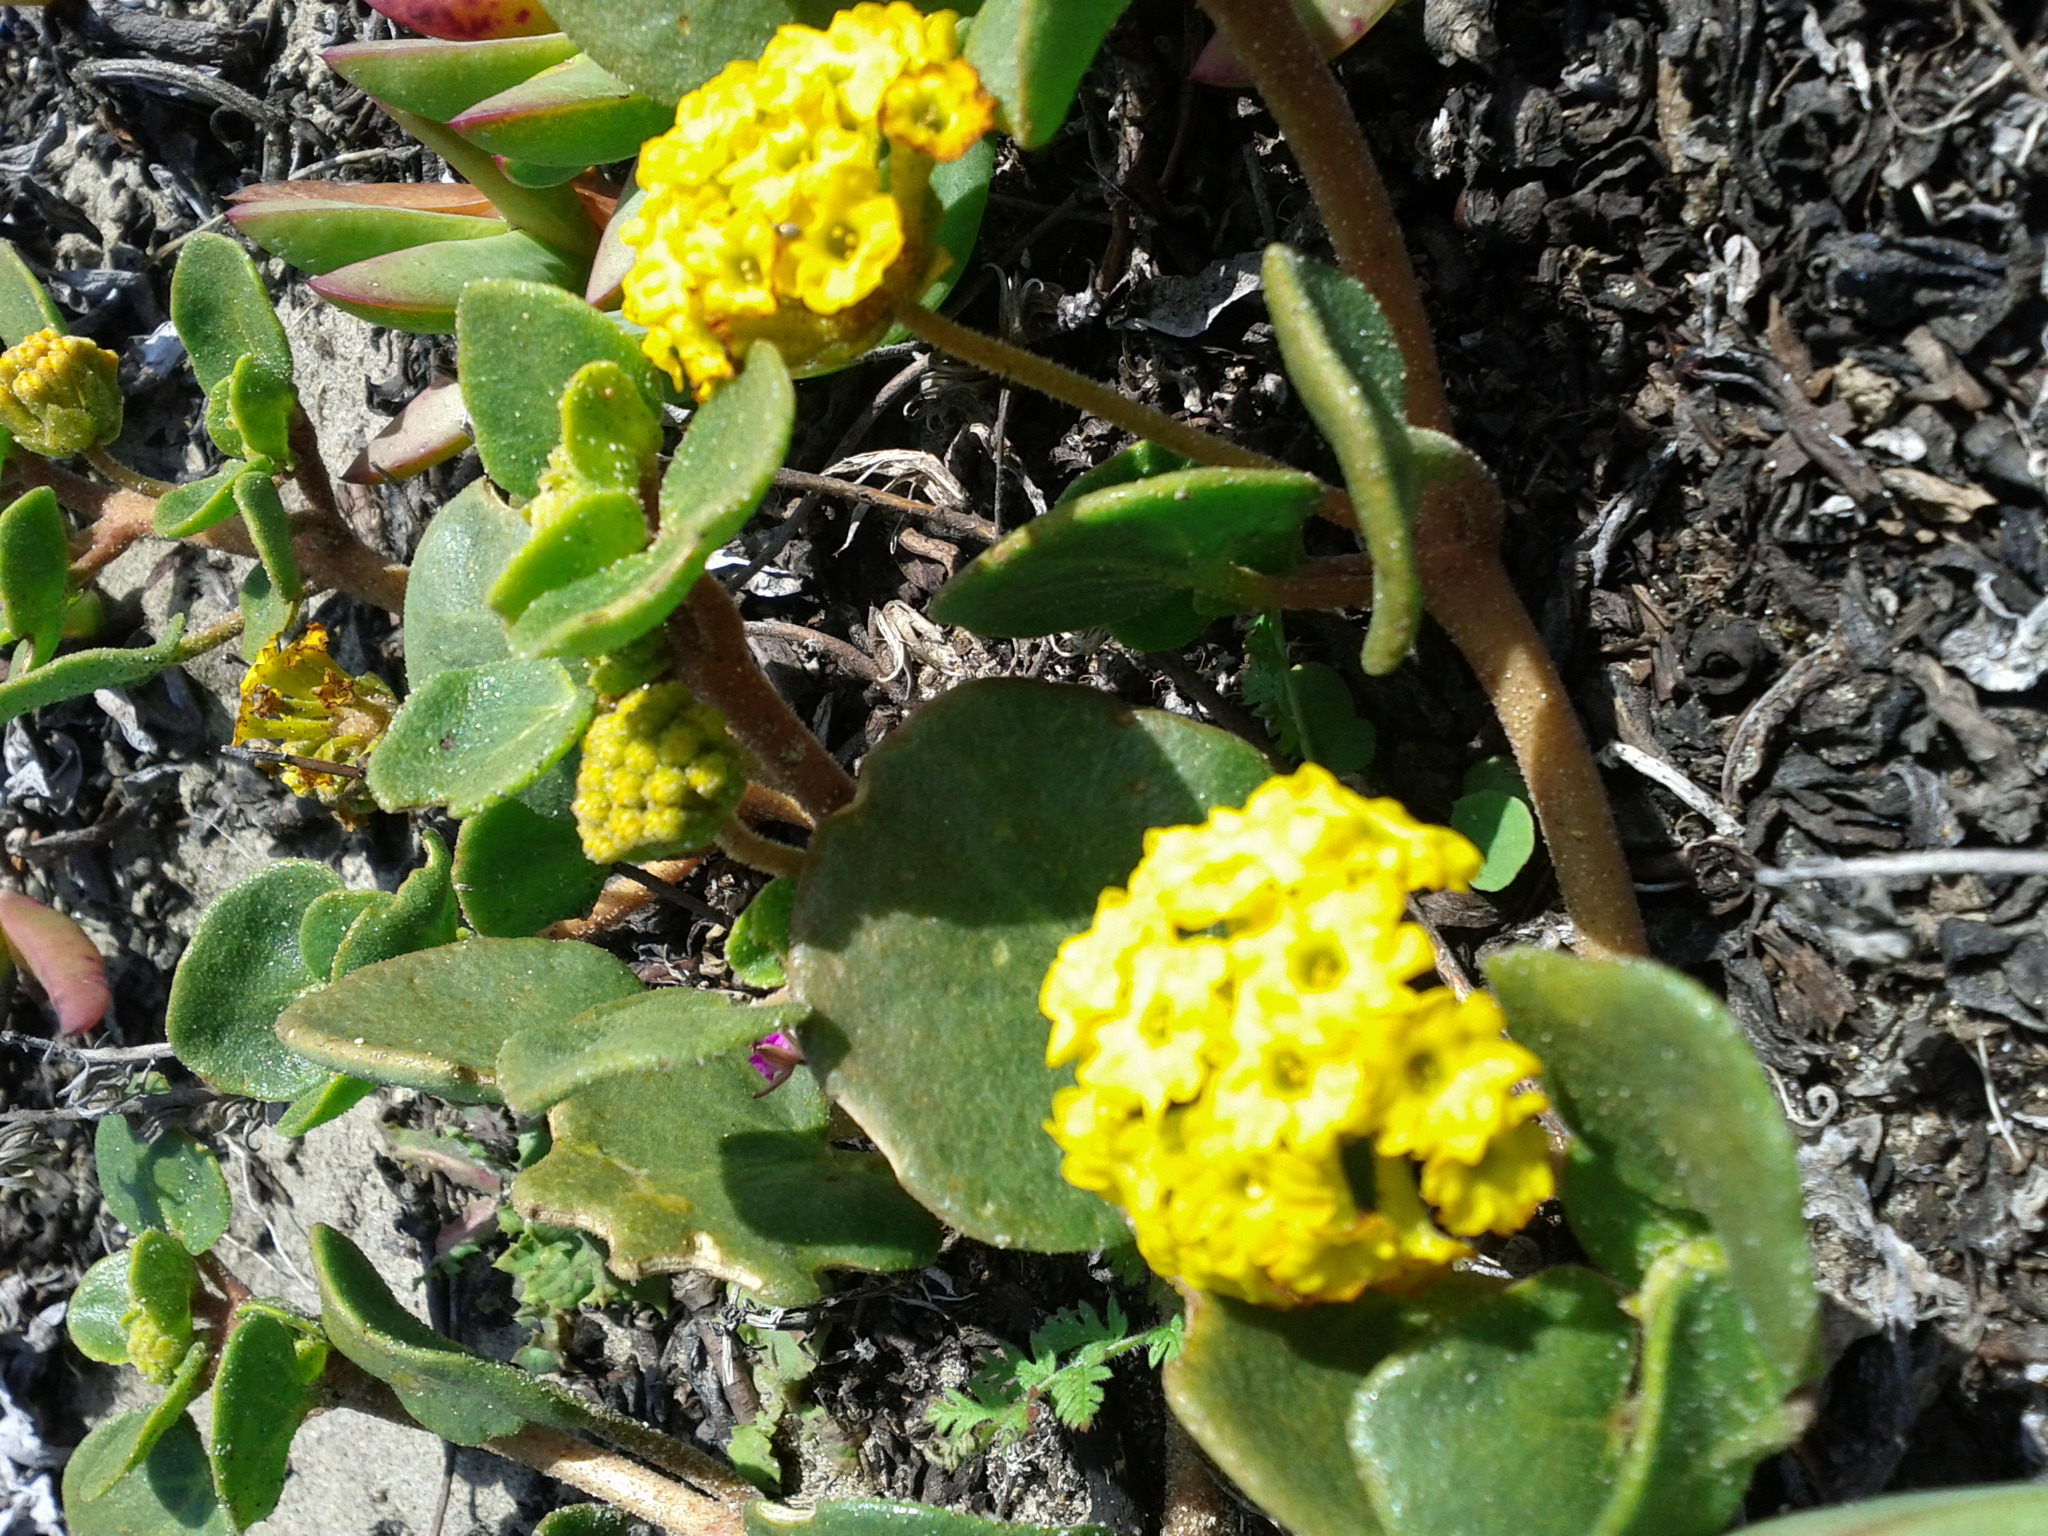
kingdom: Plantae
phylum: Tracheophyta
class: Magnoliopsida
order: Caryophyllales
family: Nyctaginaceae
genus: Abronia
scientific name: Abronia latifolia
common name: Yellow sand-verbena
